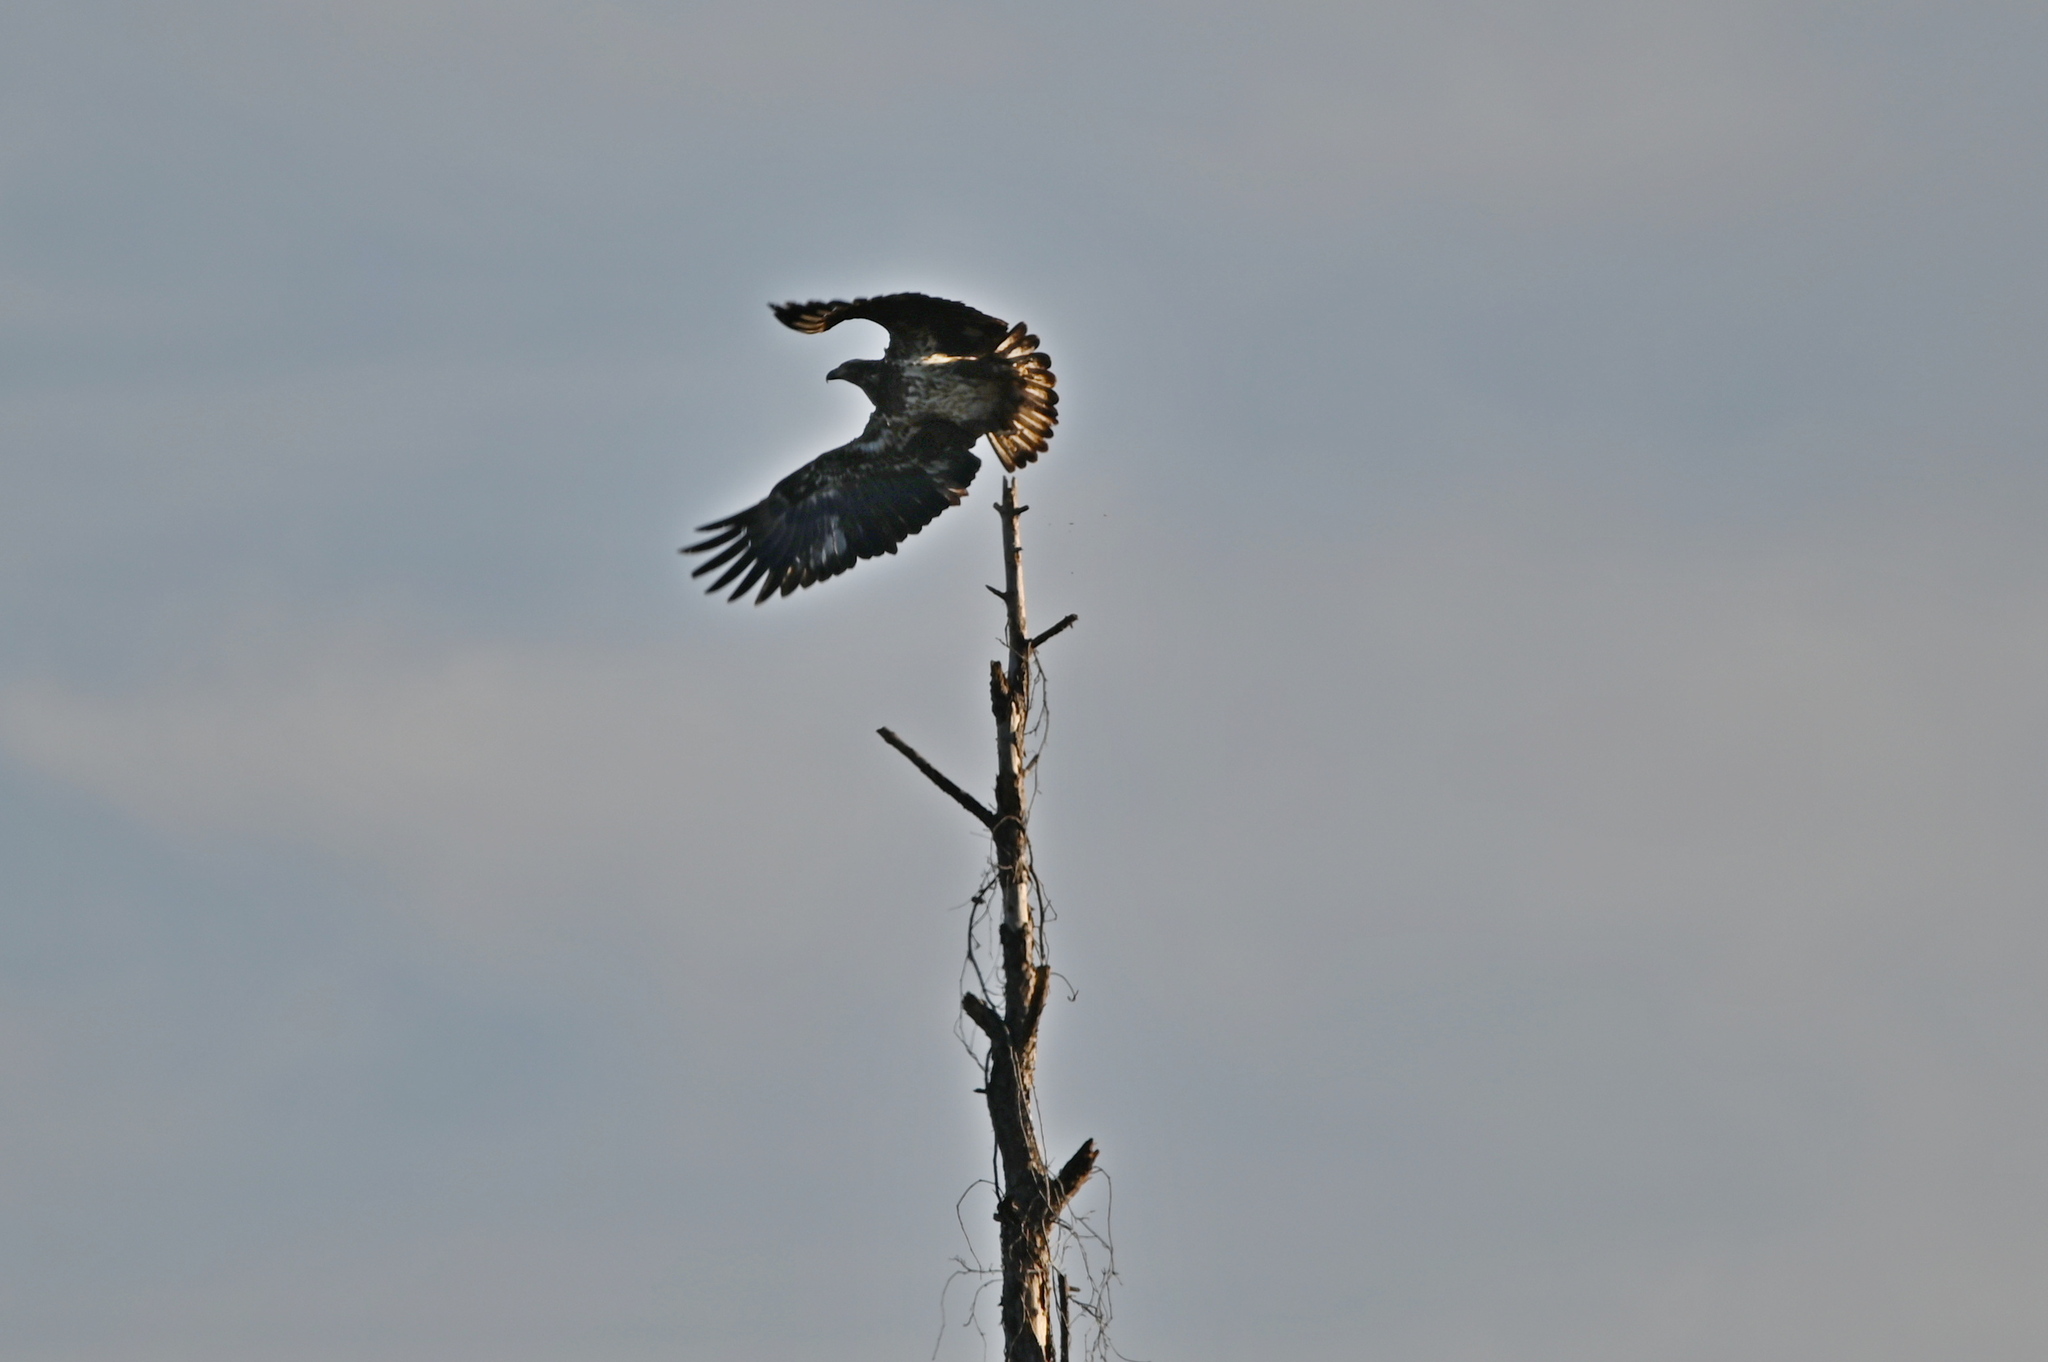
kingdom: Animalia
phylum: Chordata
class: Aves
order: Accipitriformes
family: Accipitridae
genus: Haliaeetus
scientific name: Haliaeetus leucocephalus
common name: Bald eagle
